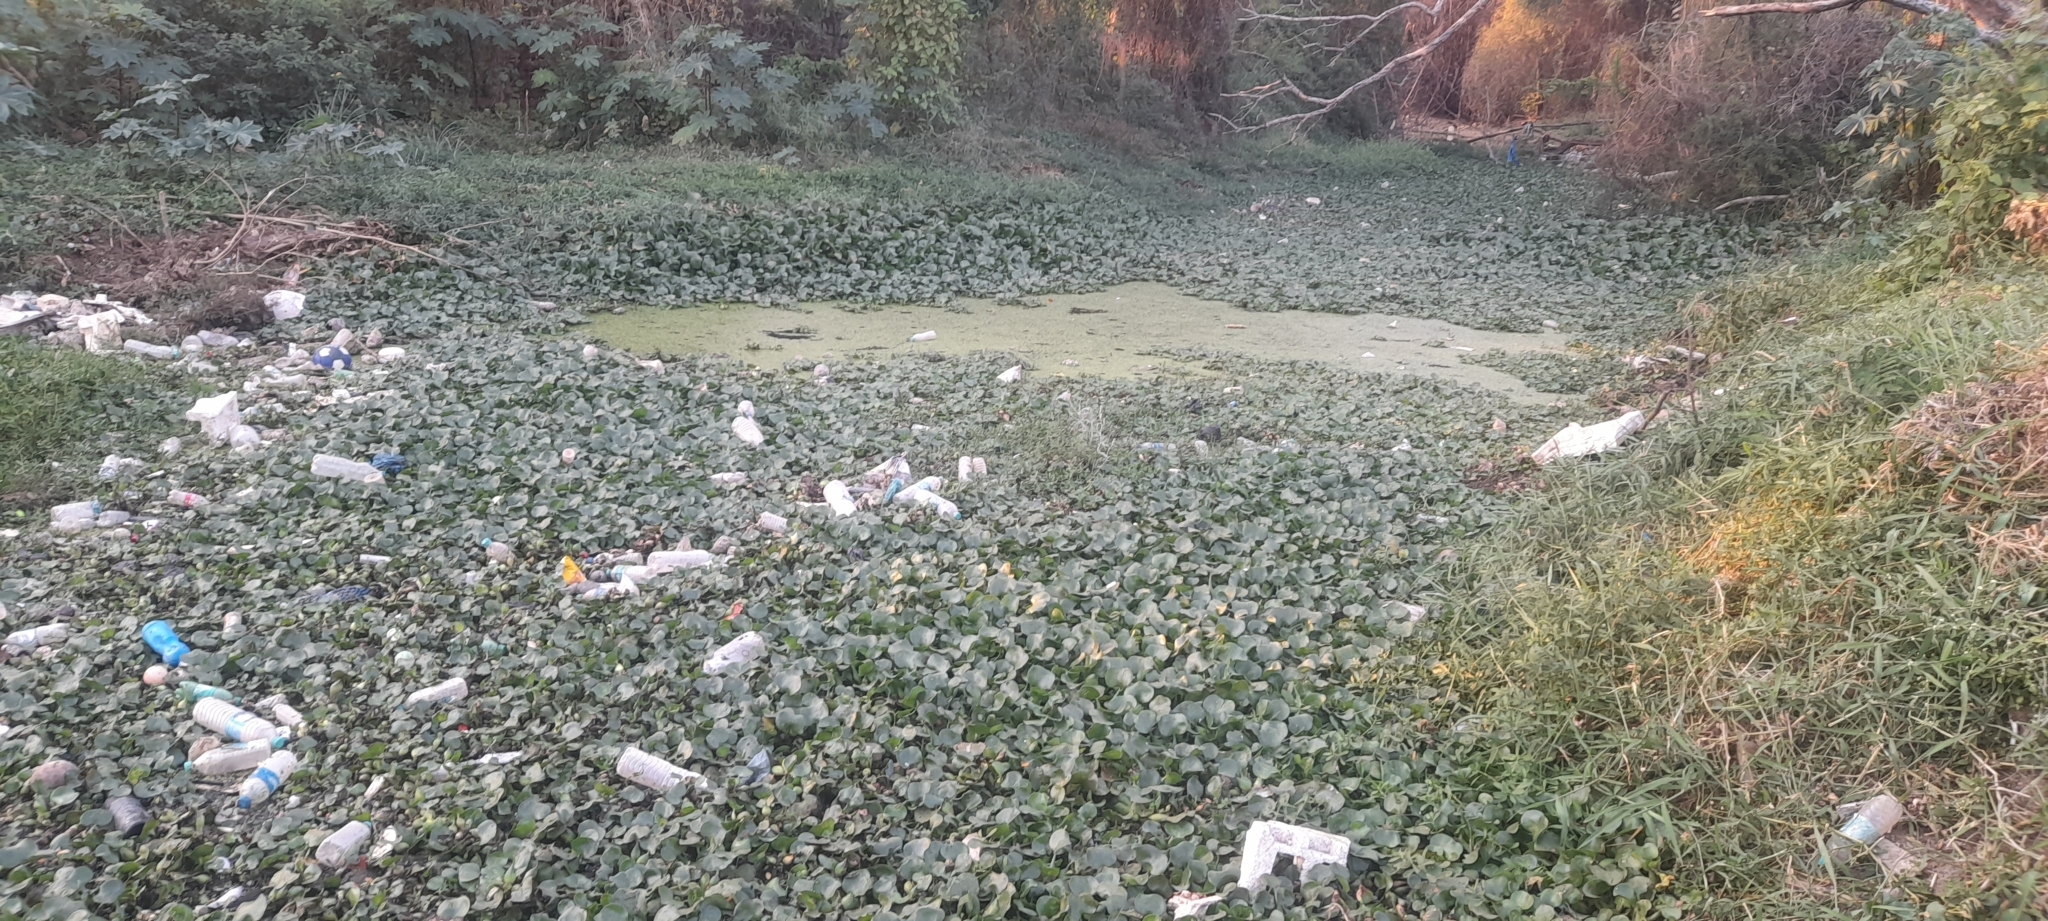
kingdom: Plantae
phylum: Tracheophyta
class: Liliopsida
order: Commelinales
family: Pontederiaceae
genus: Pontederia
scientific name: Pontederia crassipes
